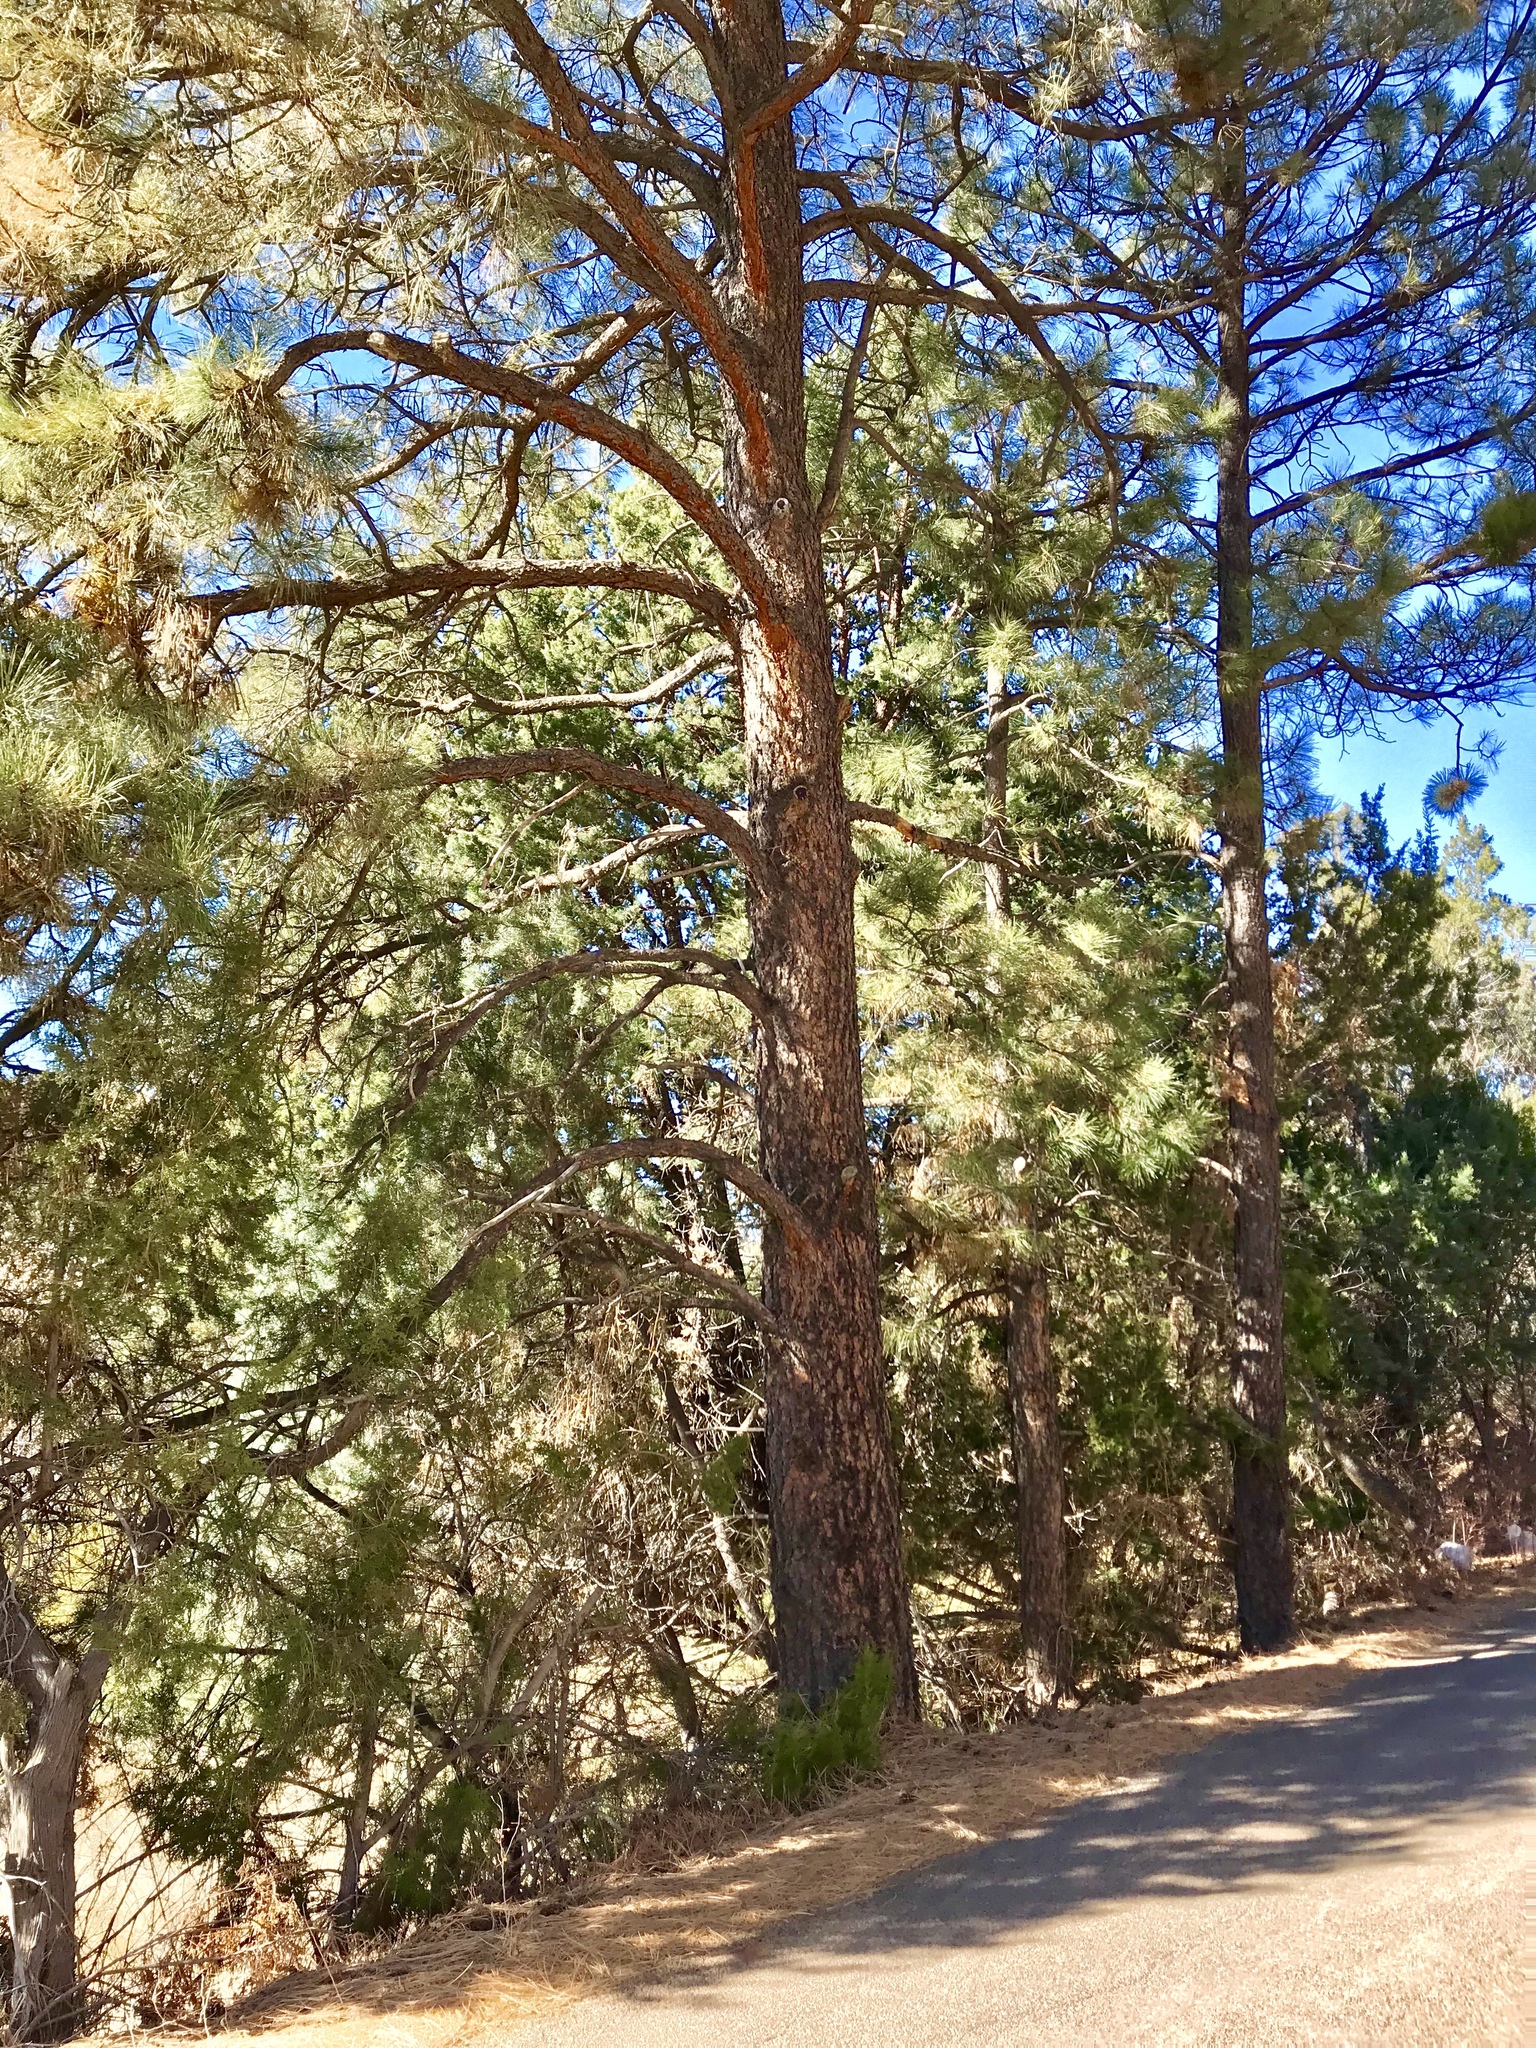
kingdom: Plantae
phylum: Tracheophyta
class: Pinopsida
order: Pinales
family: Pinaceae
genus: Pinus
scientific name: Pinus ponderosa
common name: Western yellow-pine
